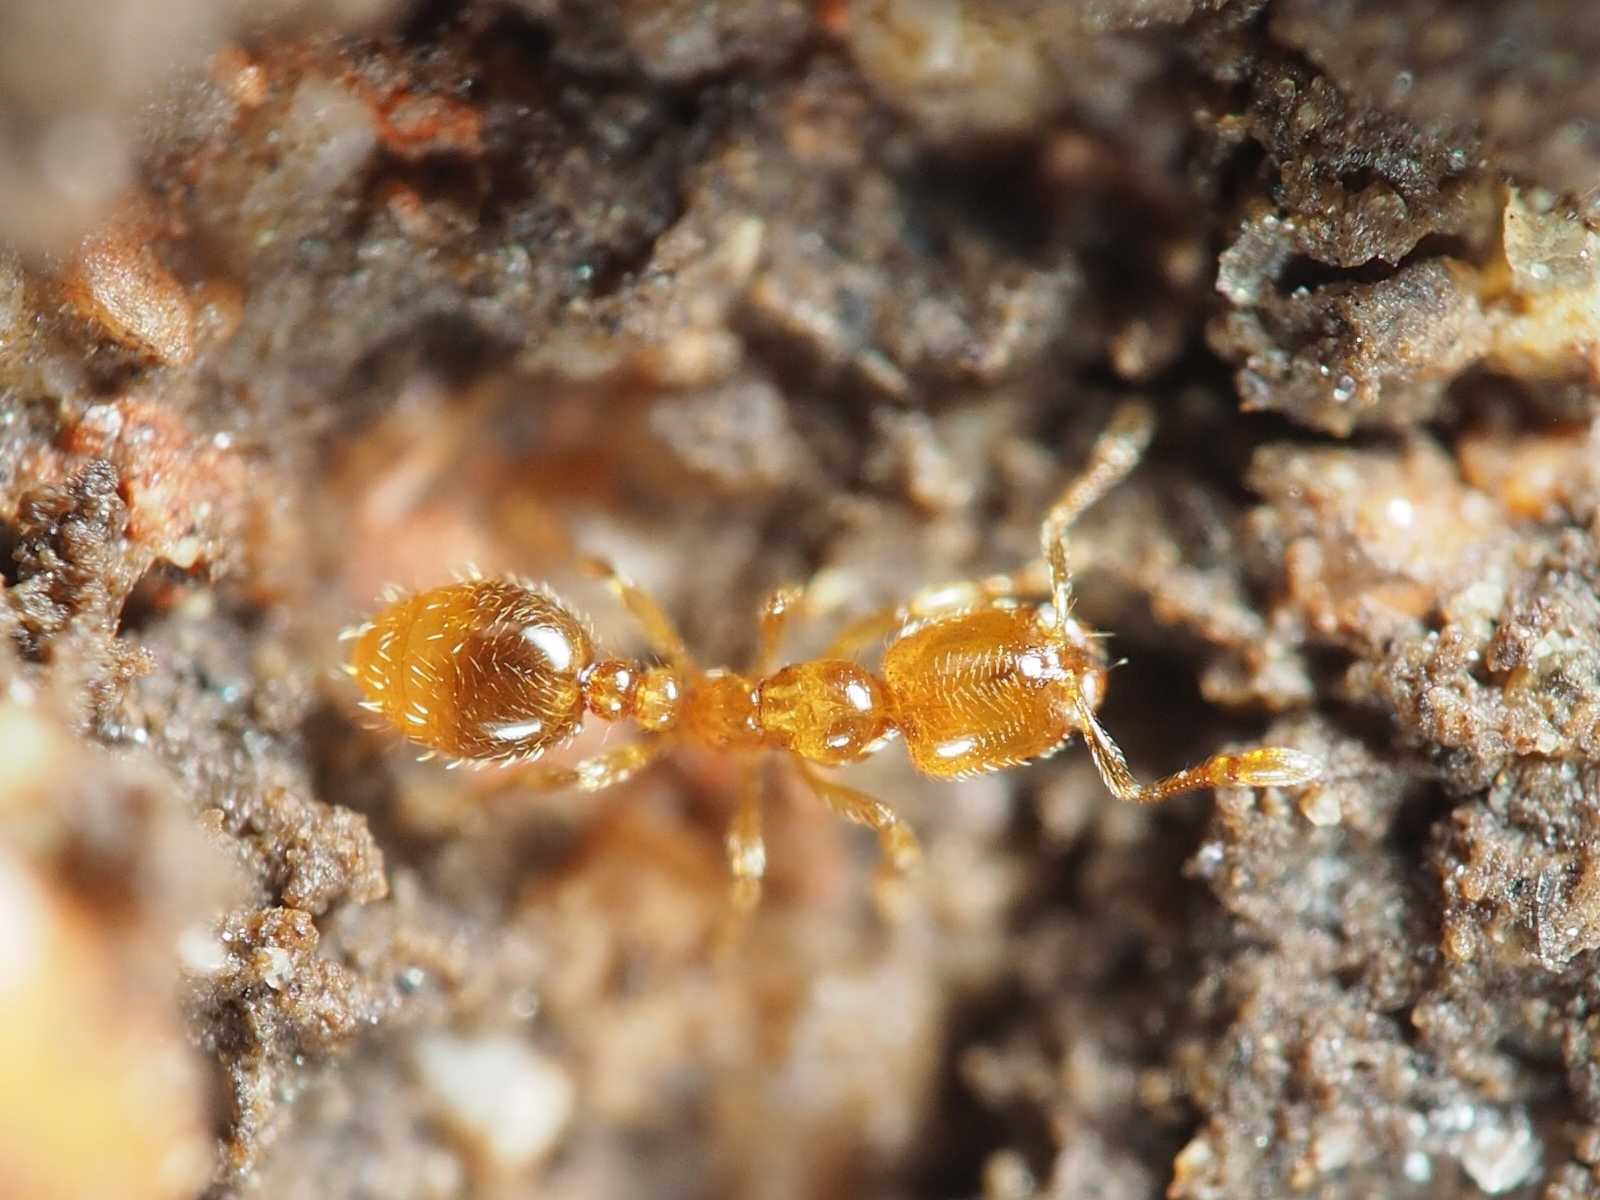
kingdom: Animalia
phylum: Arthropoda
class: Insecta
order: Hymenoptera
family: Formicidae
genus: Solenopsis
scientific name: Solenopsis fugax
